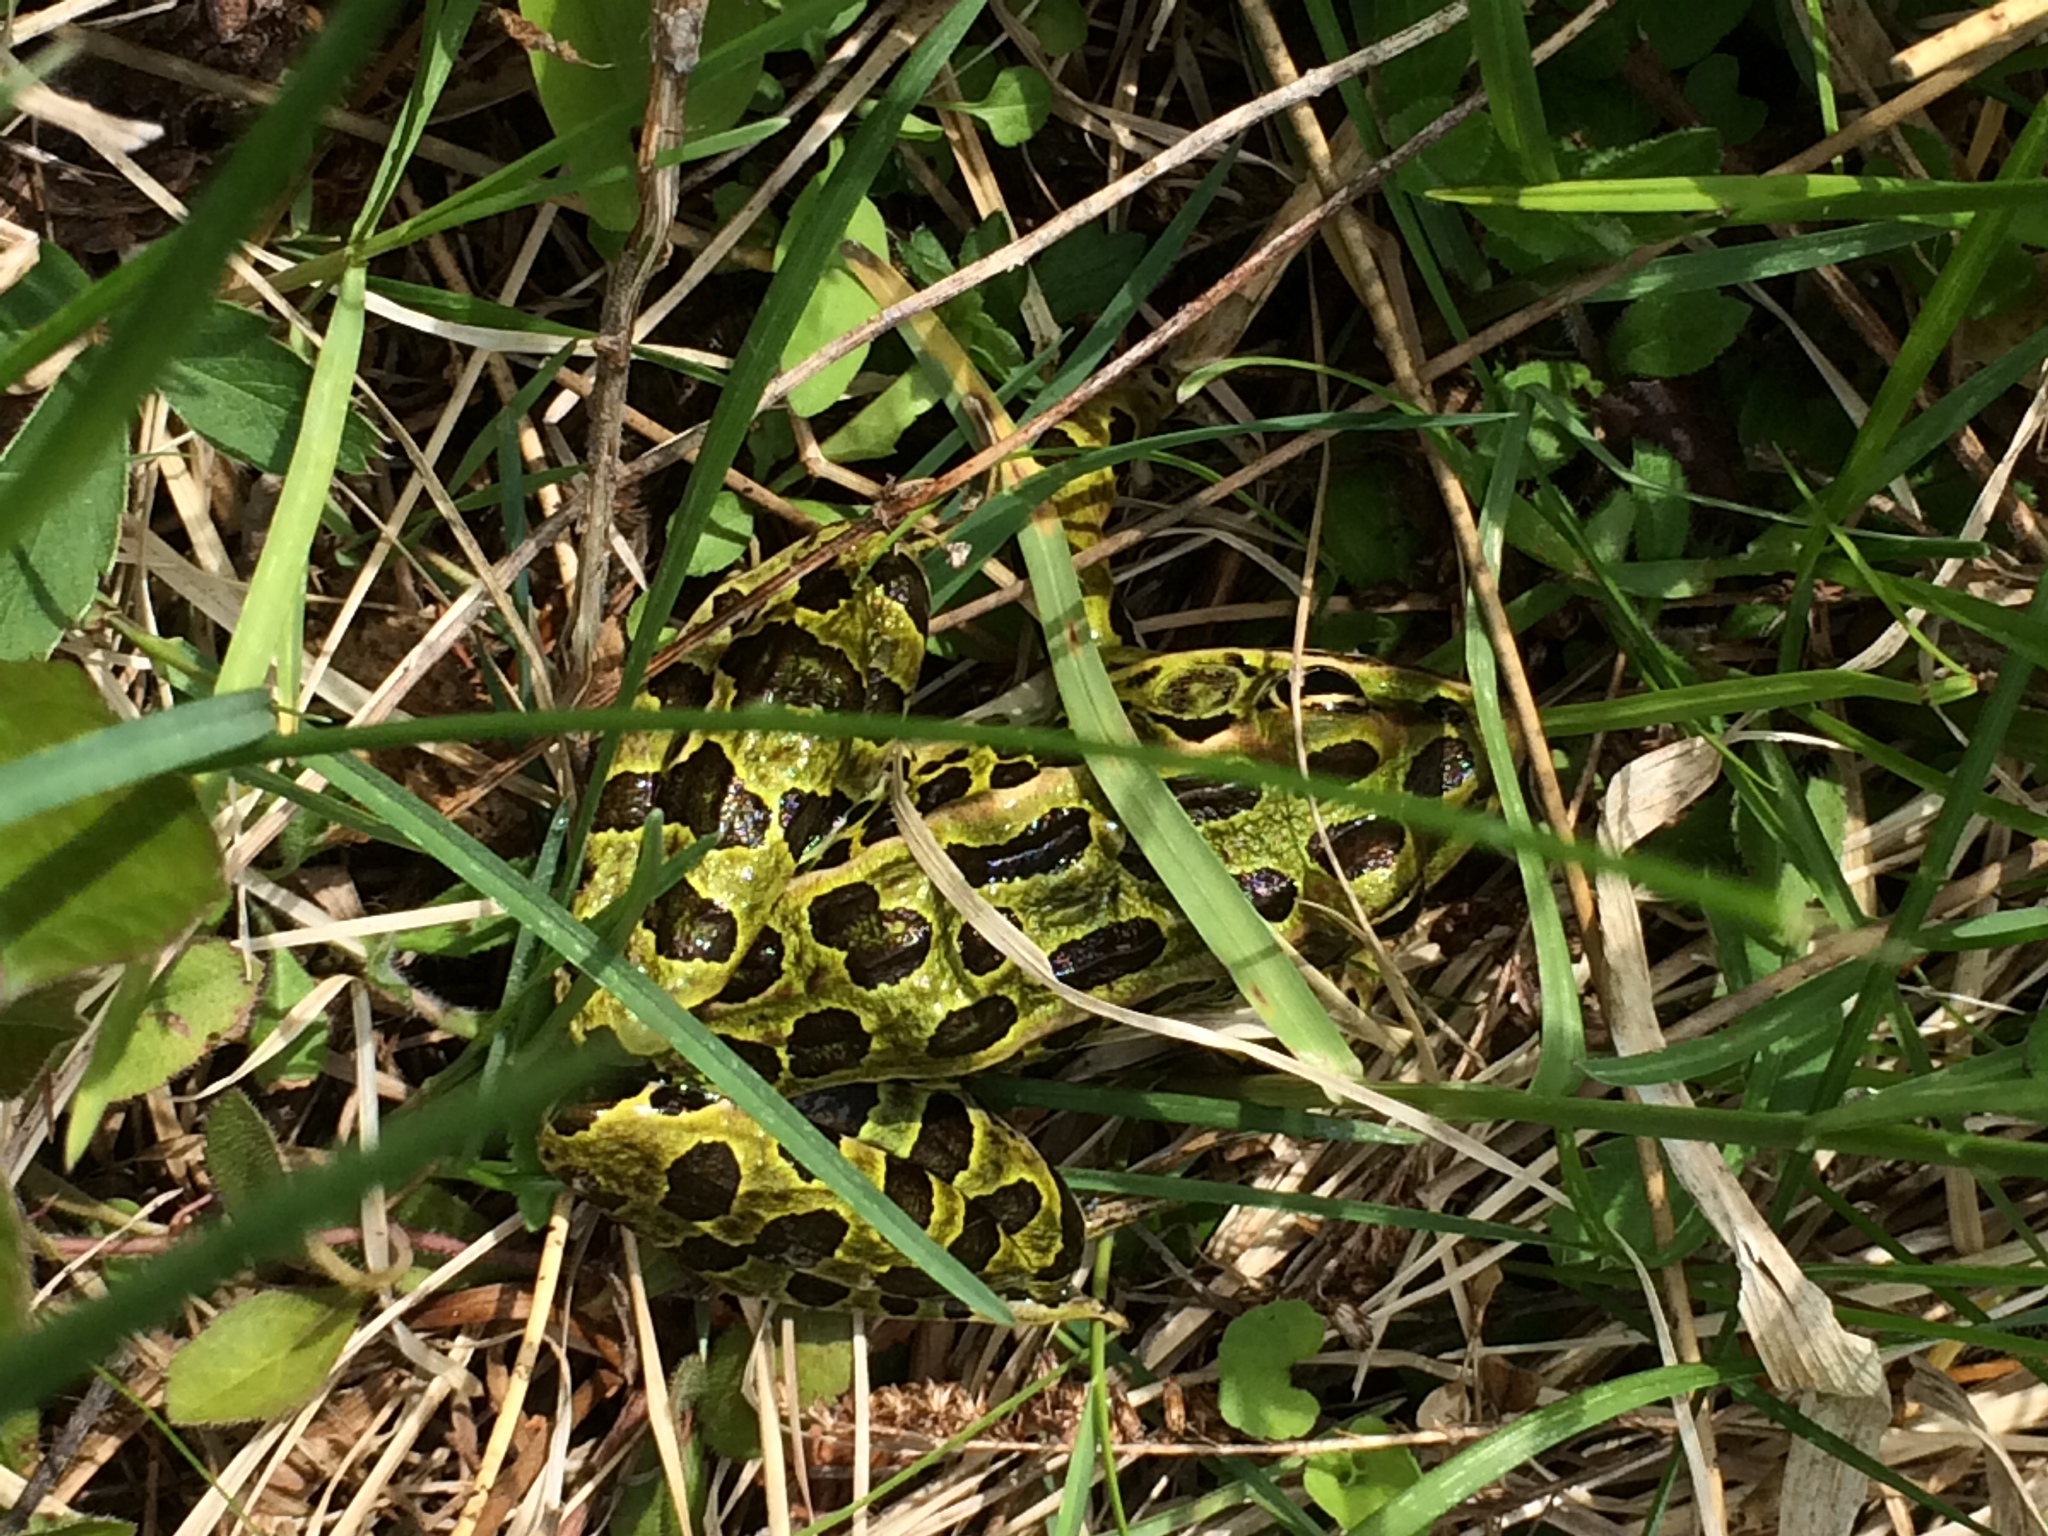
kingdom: Animalia
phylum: Chordata
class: Amphibia
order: Anura
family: Ranidae
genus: Lithobates
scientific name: Lithobates pipiens
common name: Northern leopard frog
